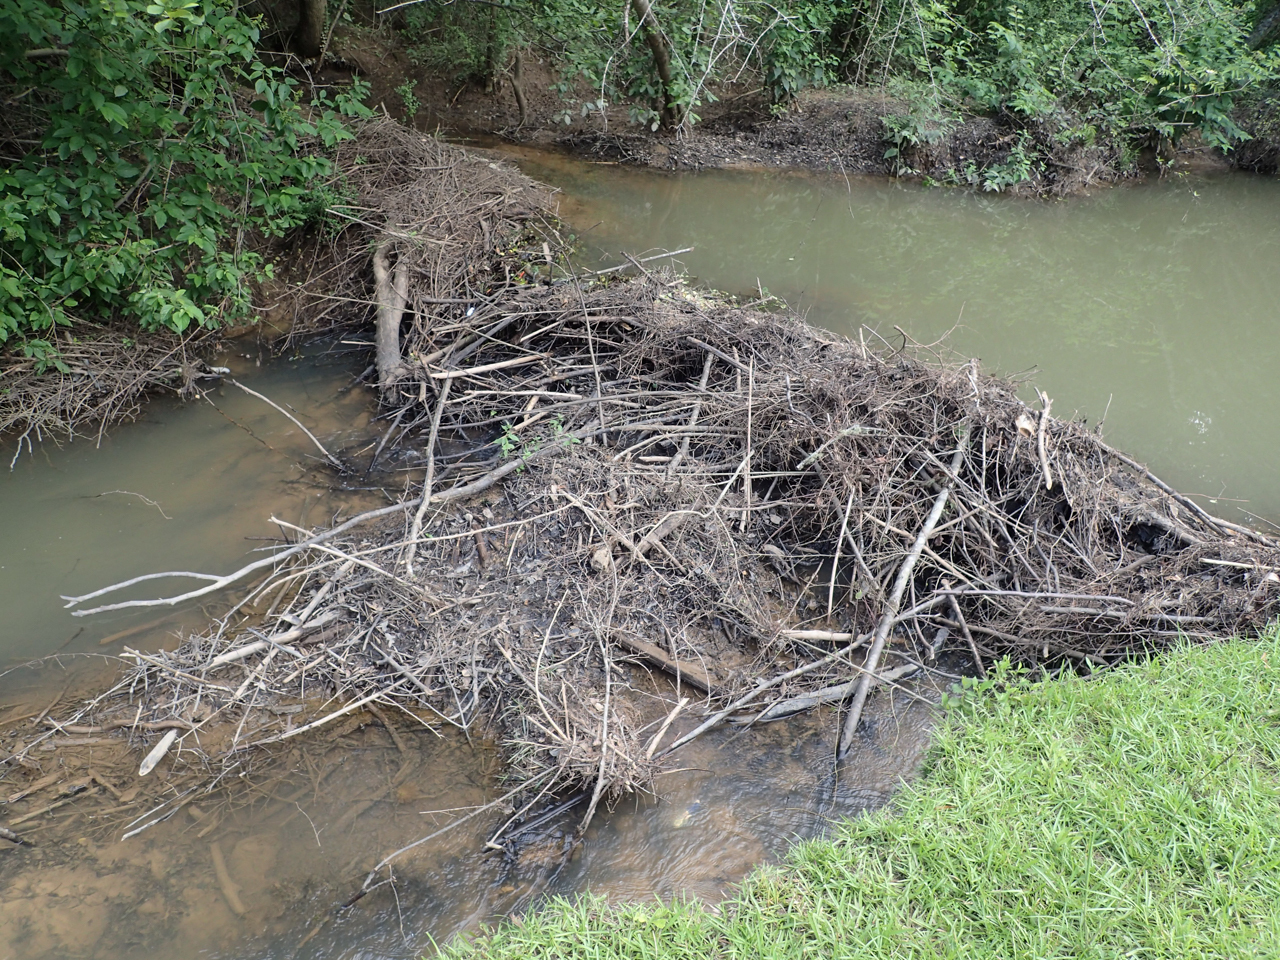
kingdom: Animalia
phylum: Chordata
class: Mammalia
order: Rodentia
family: Castoridae
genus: Castor
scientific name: Castor canadensis
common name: American beaver
